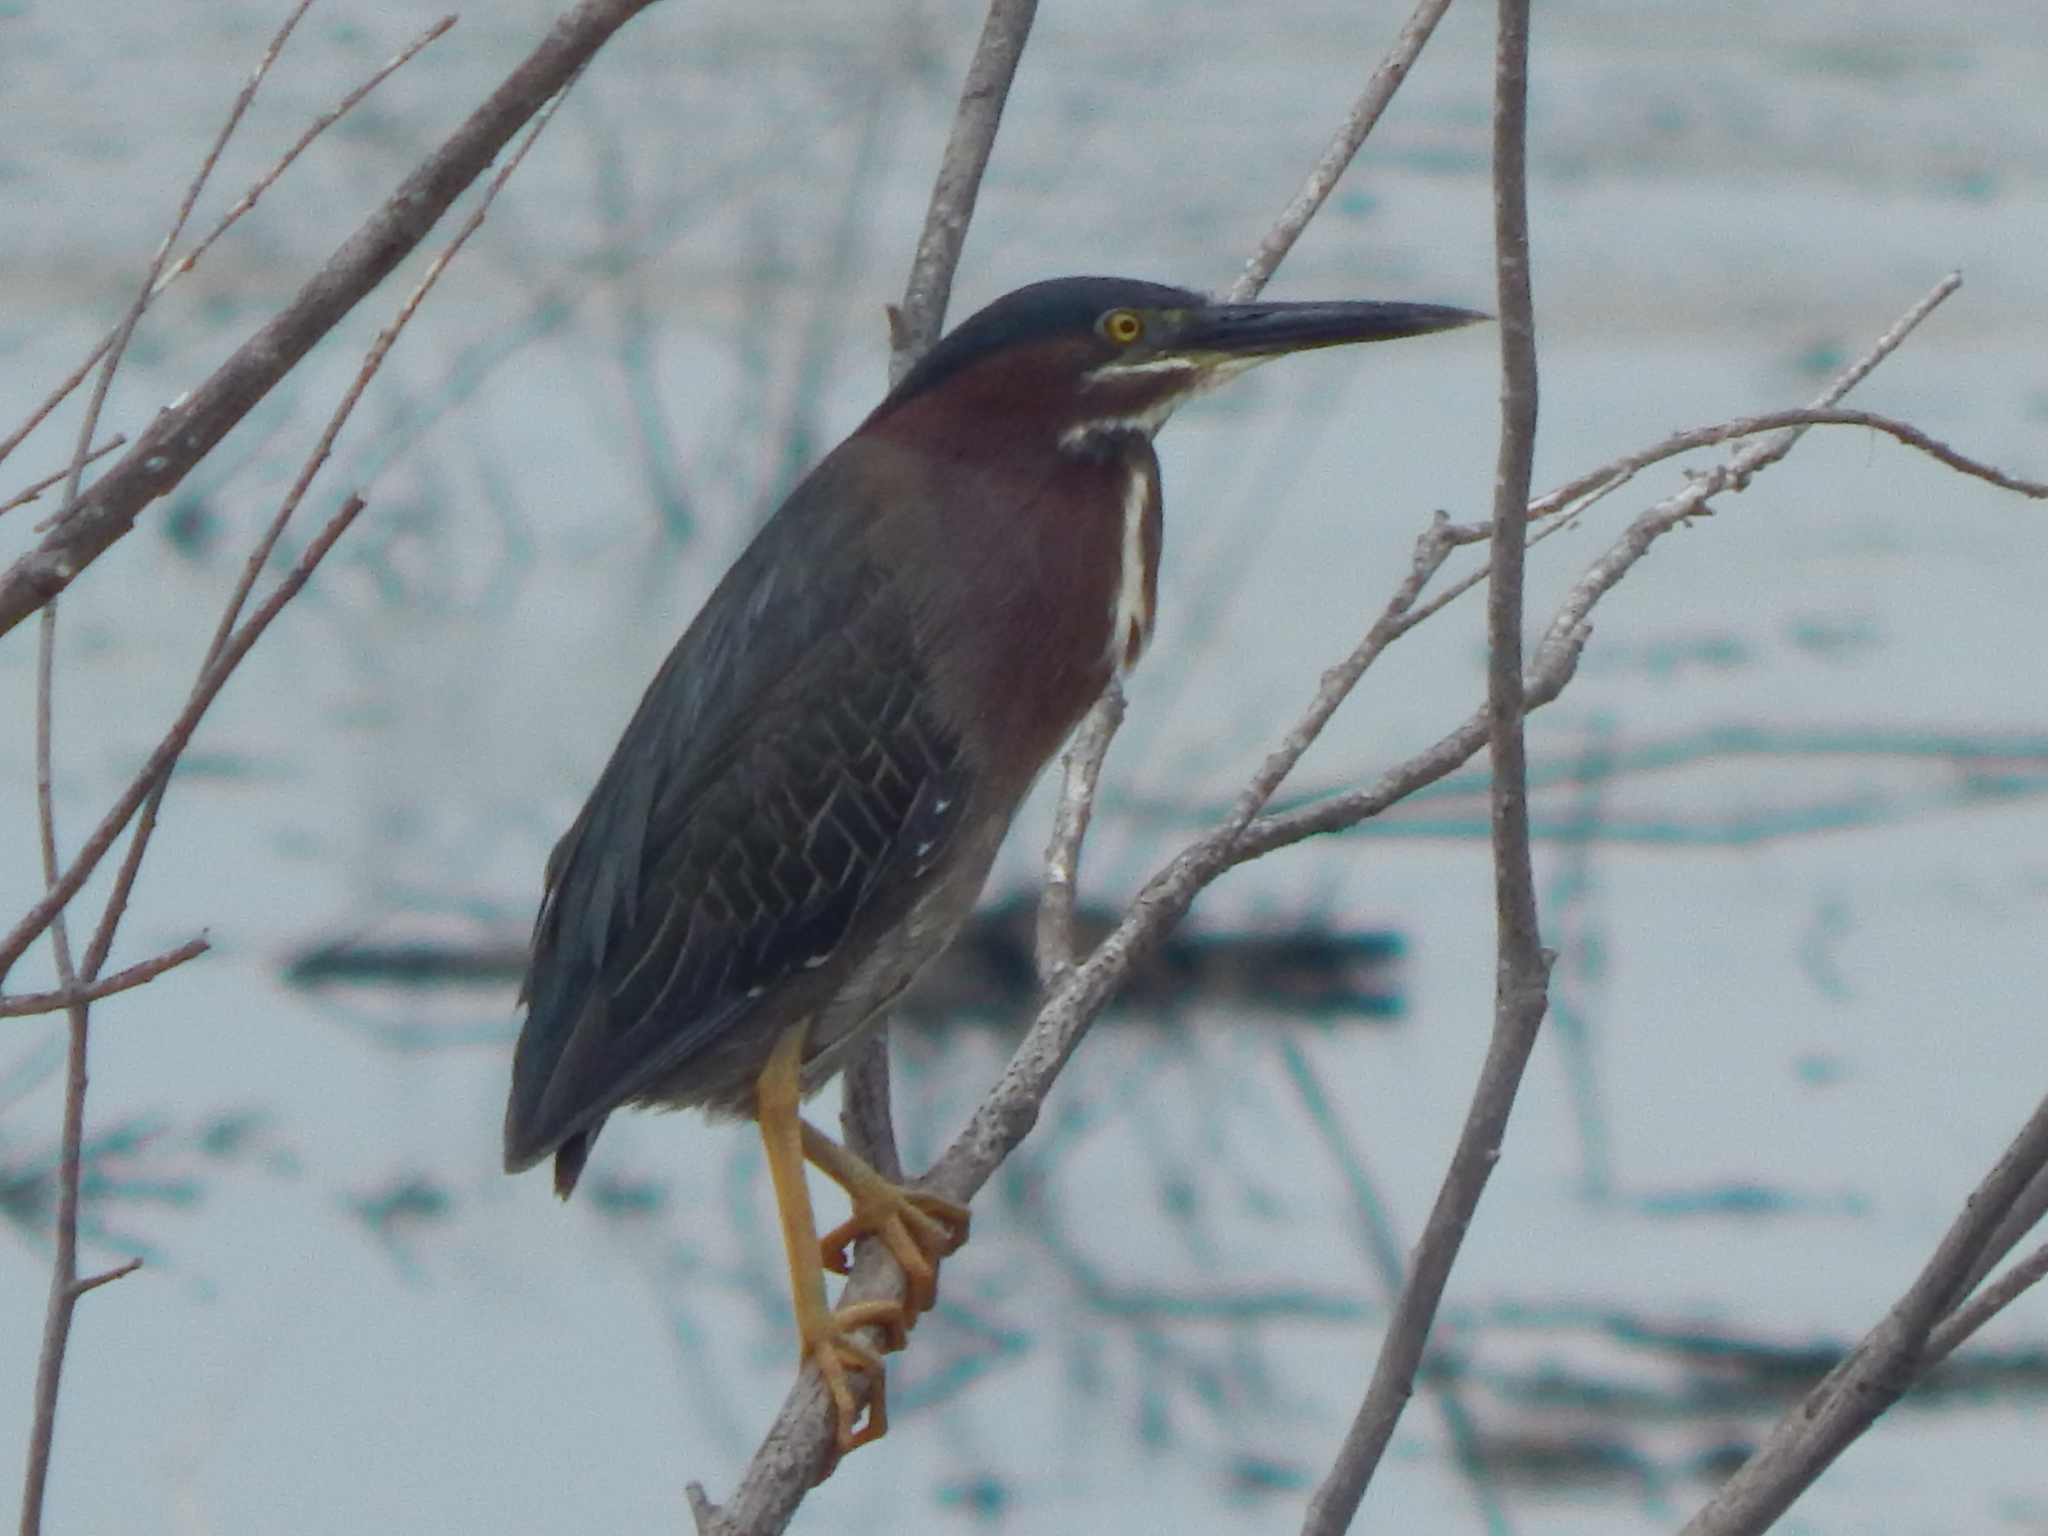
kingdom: Animalia
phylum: Chordata
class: Aves
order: Pelecaniformes
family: Ardeidae
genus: Butorides
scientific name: Butorides virescens
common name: Green heron
